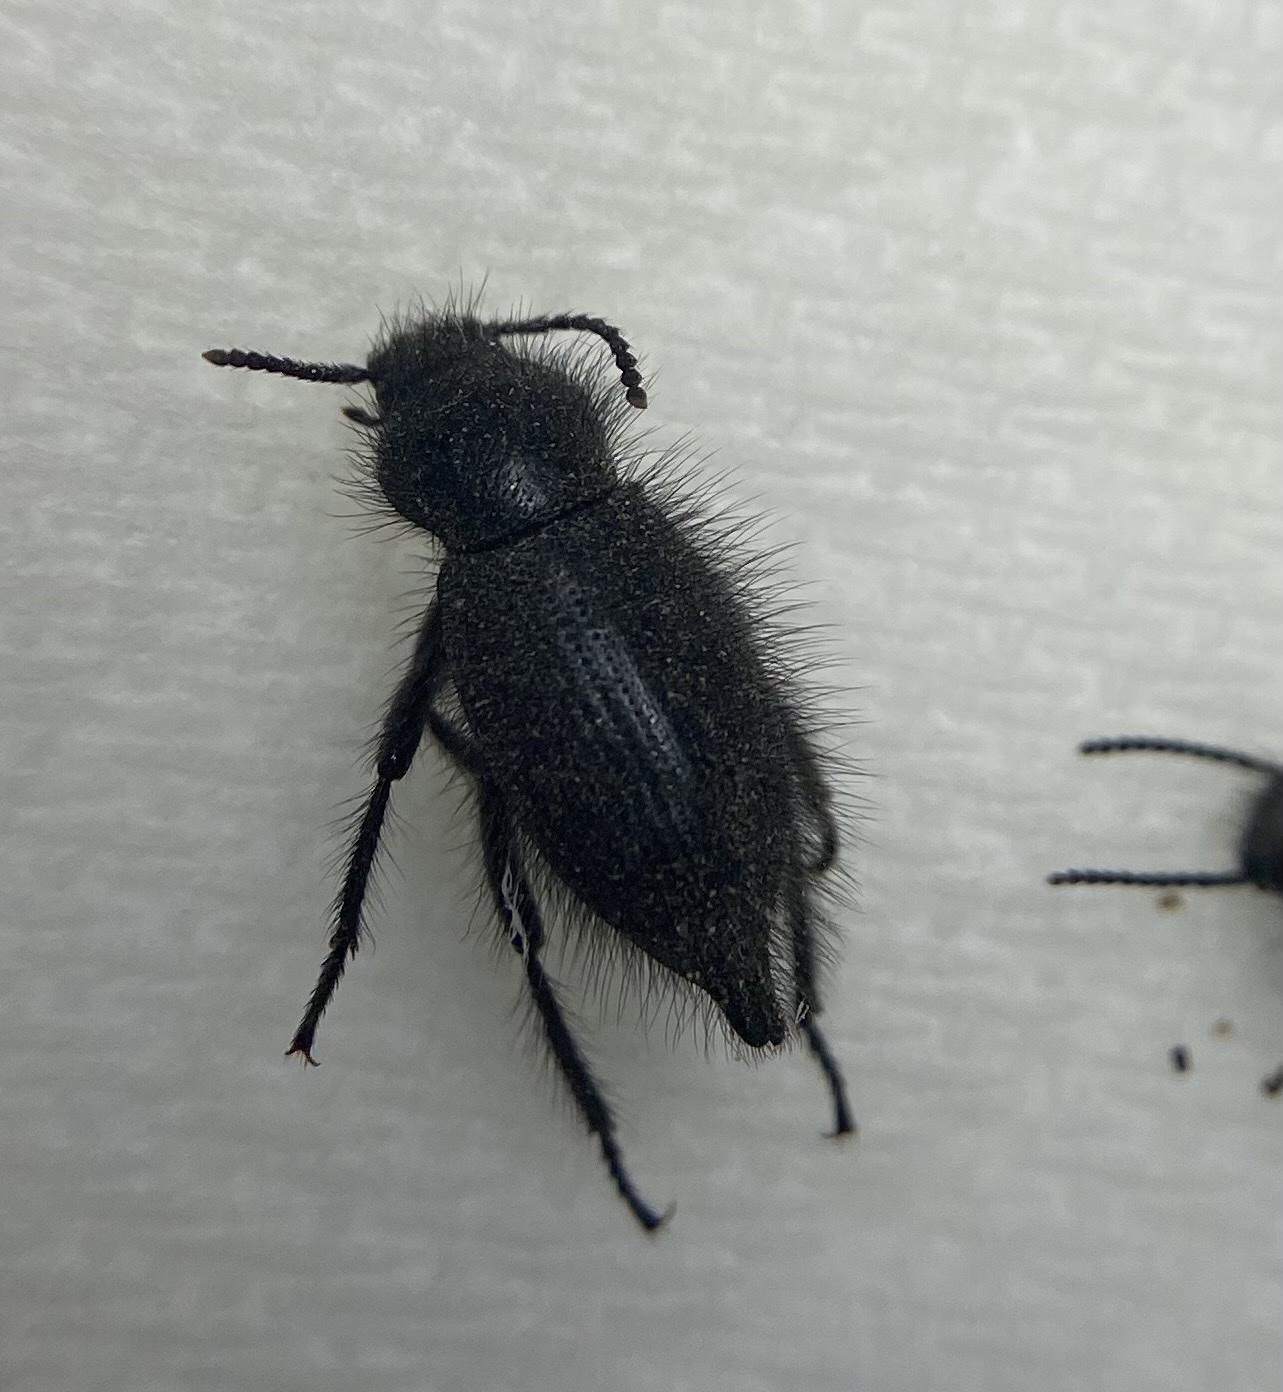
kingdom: Animalia
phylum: Arthropoda
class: Insecta
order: Coleoptera
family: Tenebrionidae
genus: Eleodes
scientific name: Eleodes tribulus
